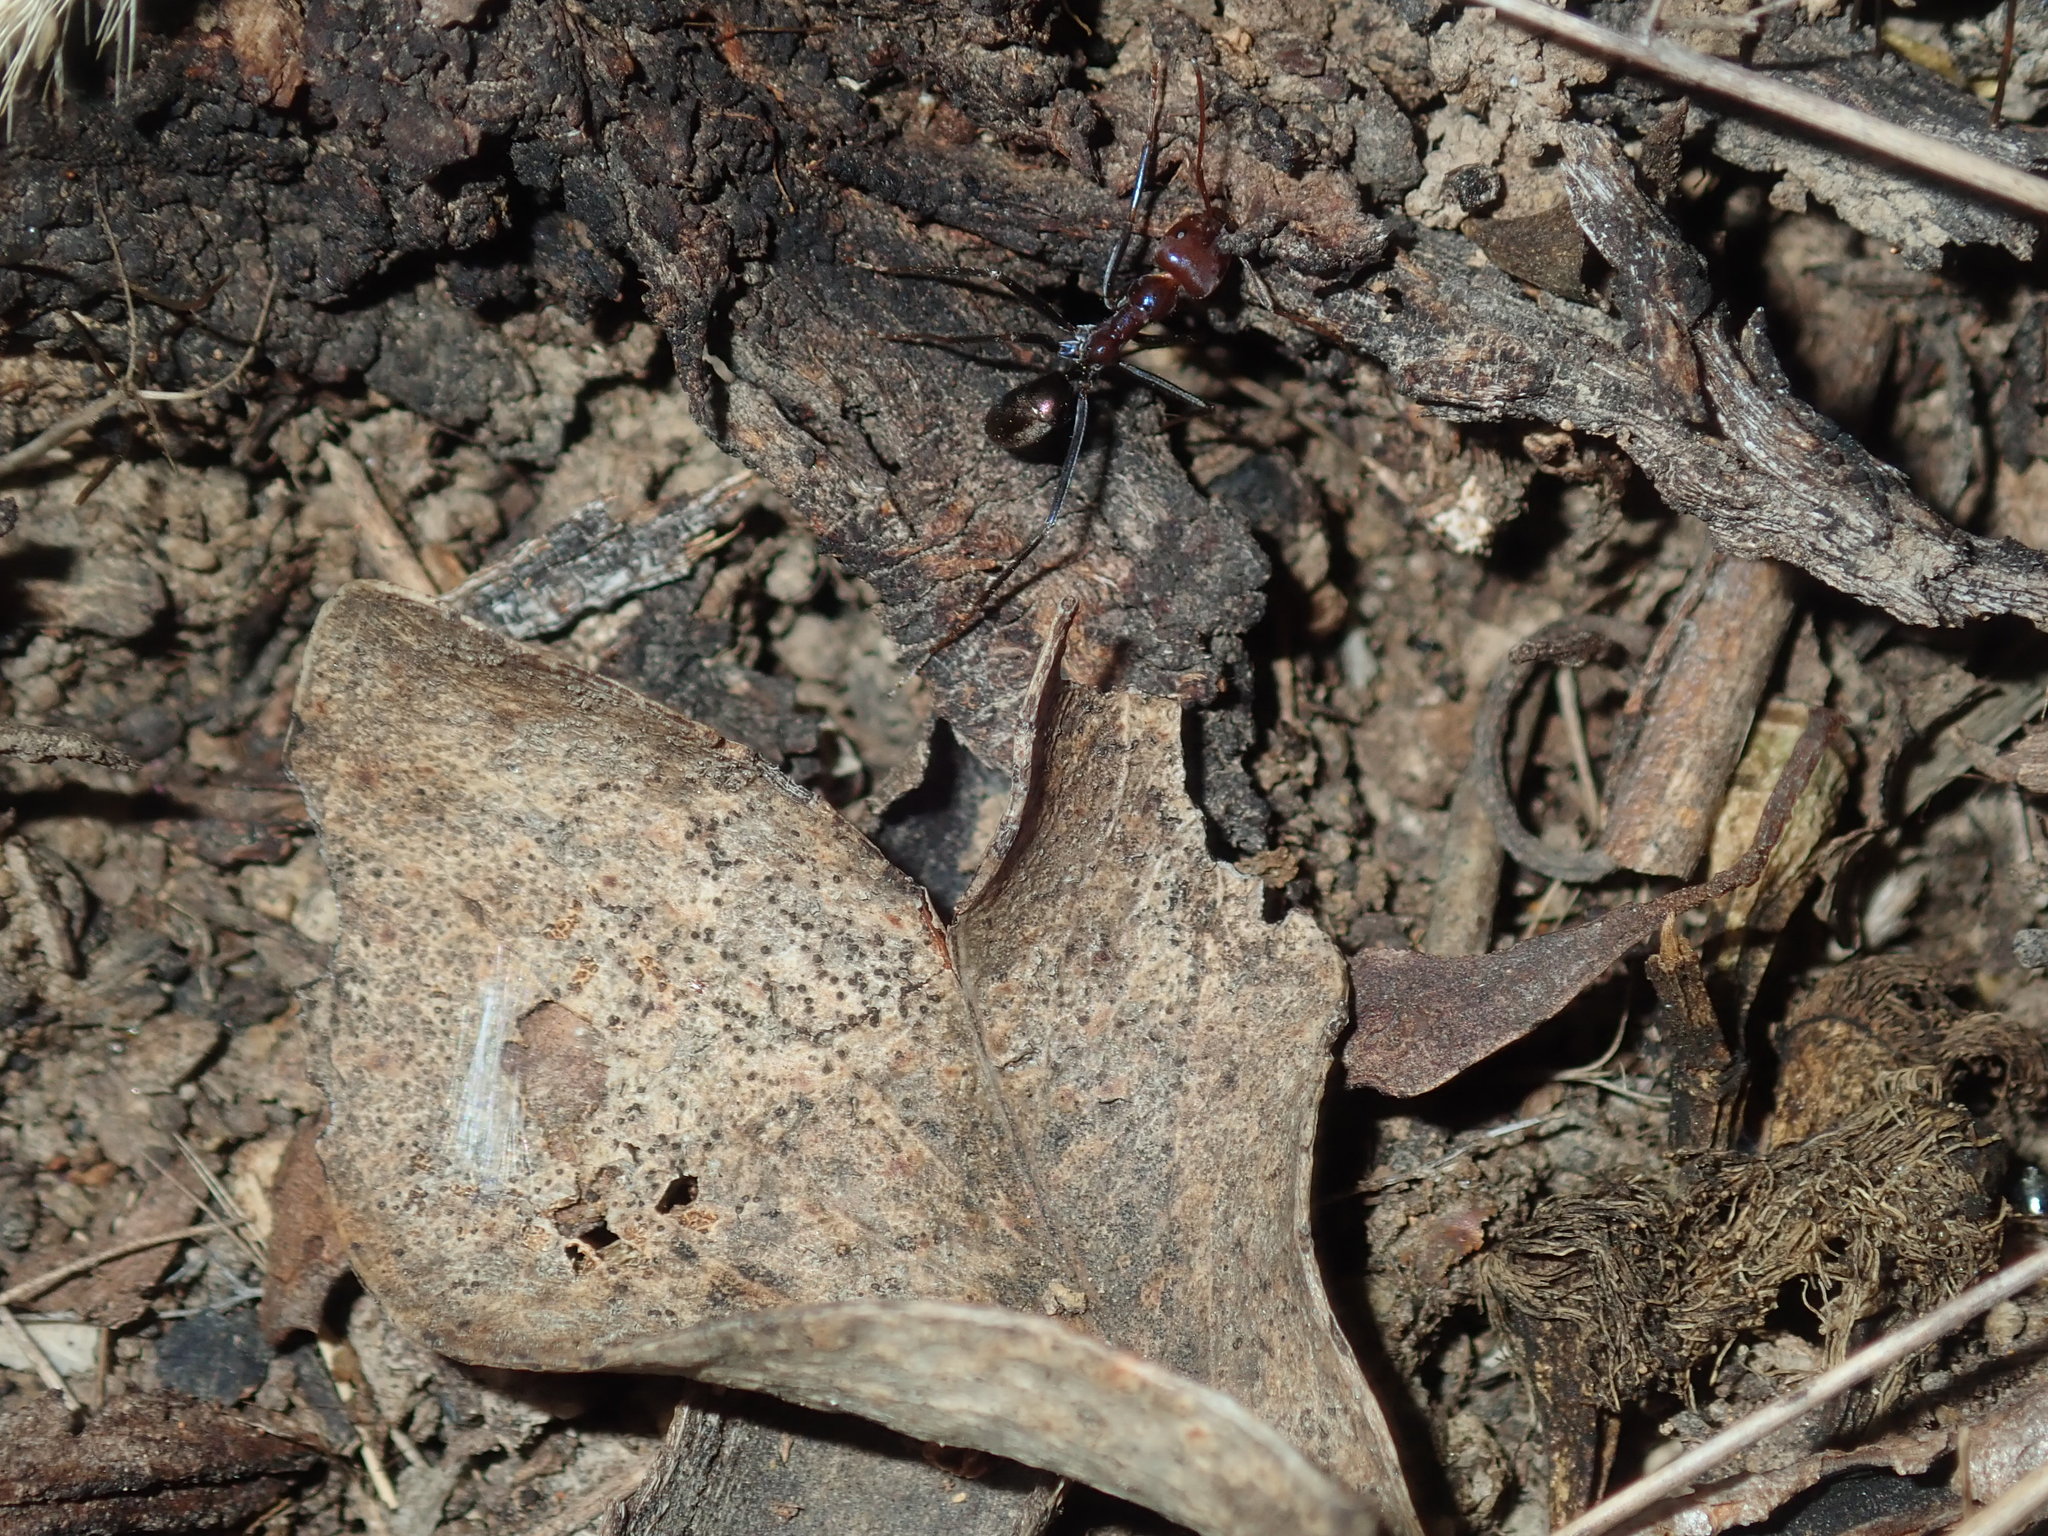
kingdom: Animalia
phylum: Arthropoda
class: Insecta
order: Hymenoptera
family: Formicidae
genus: Iridomyrmex
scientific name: Iridomyrmex purpureus
